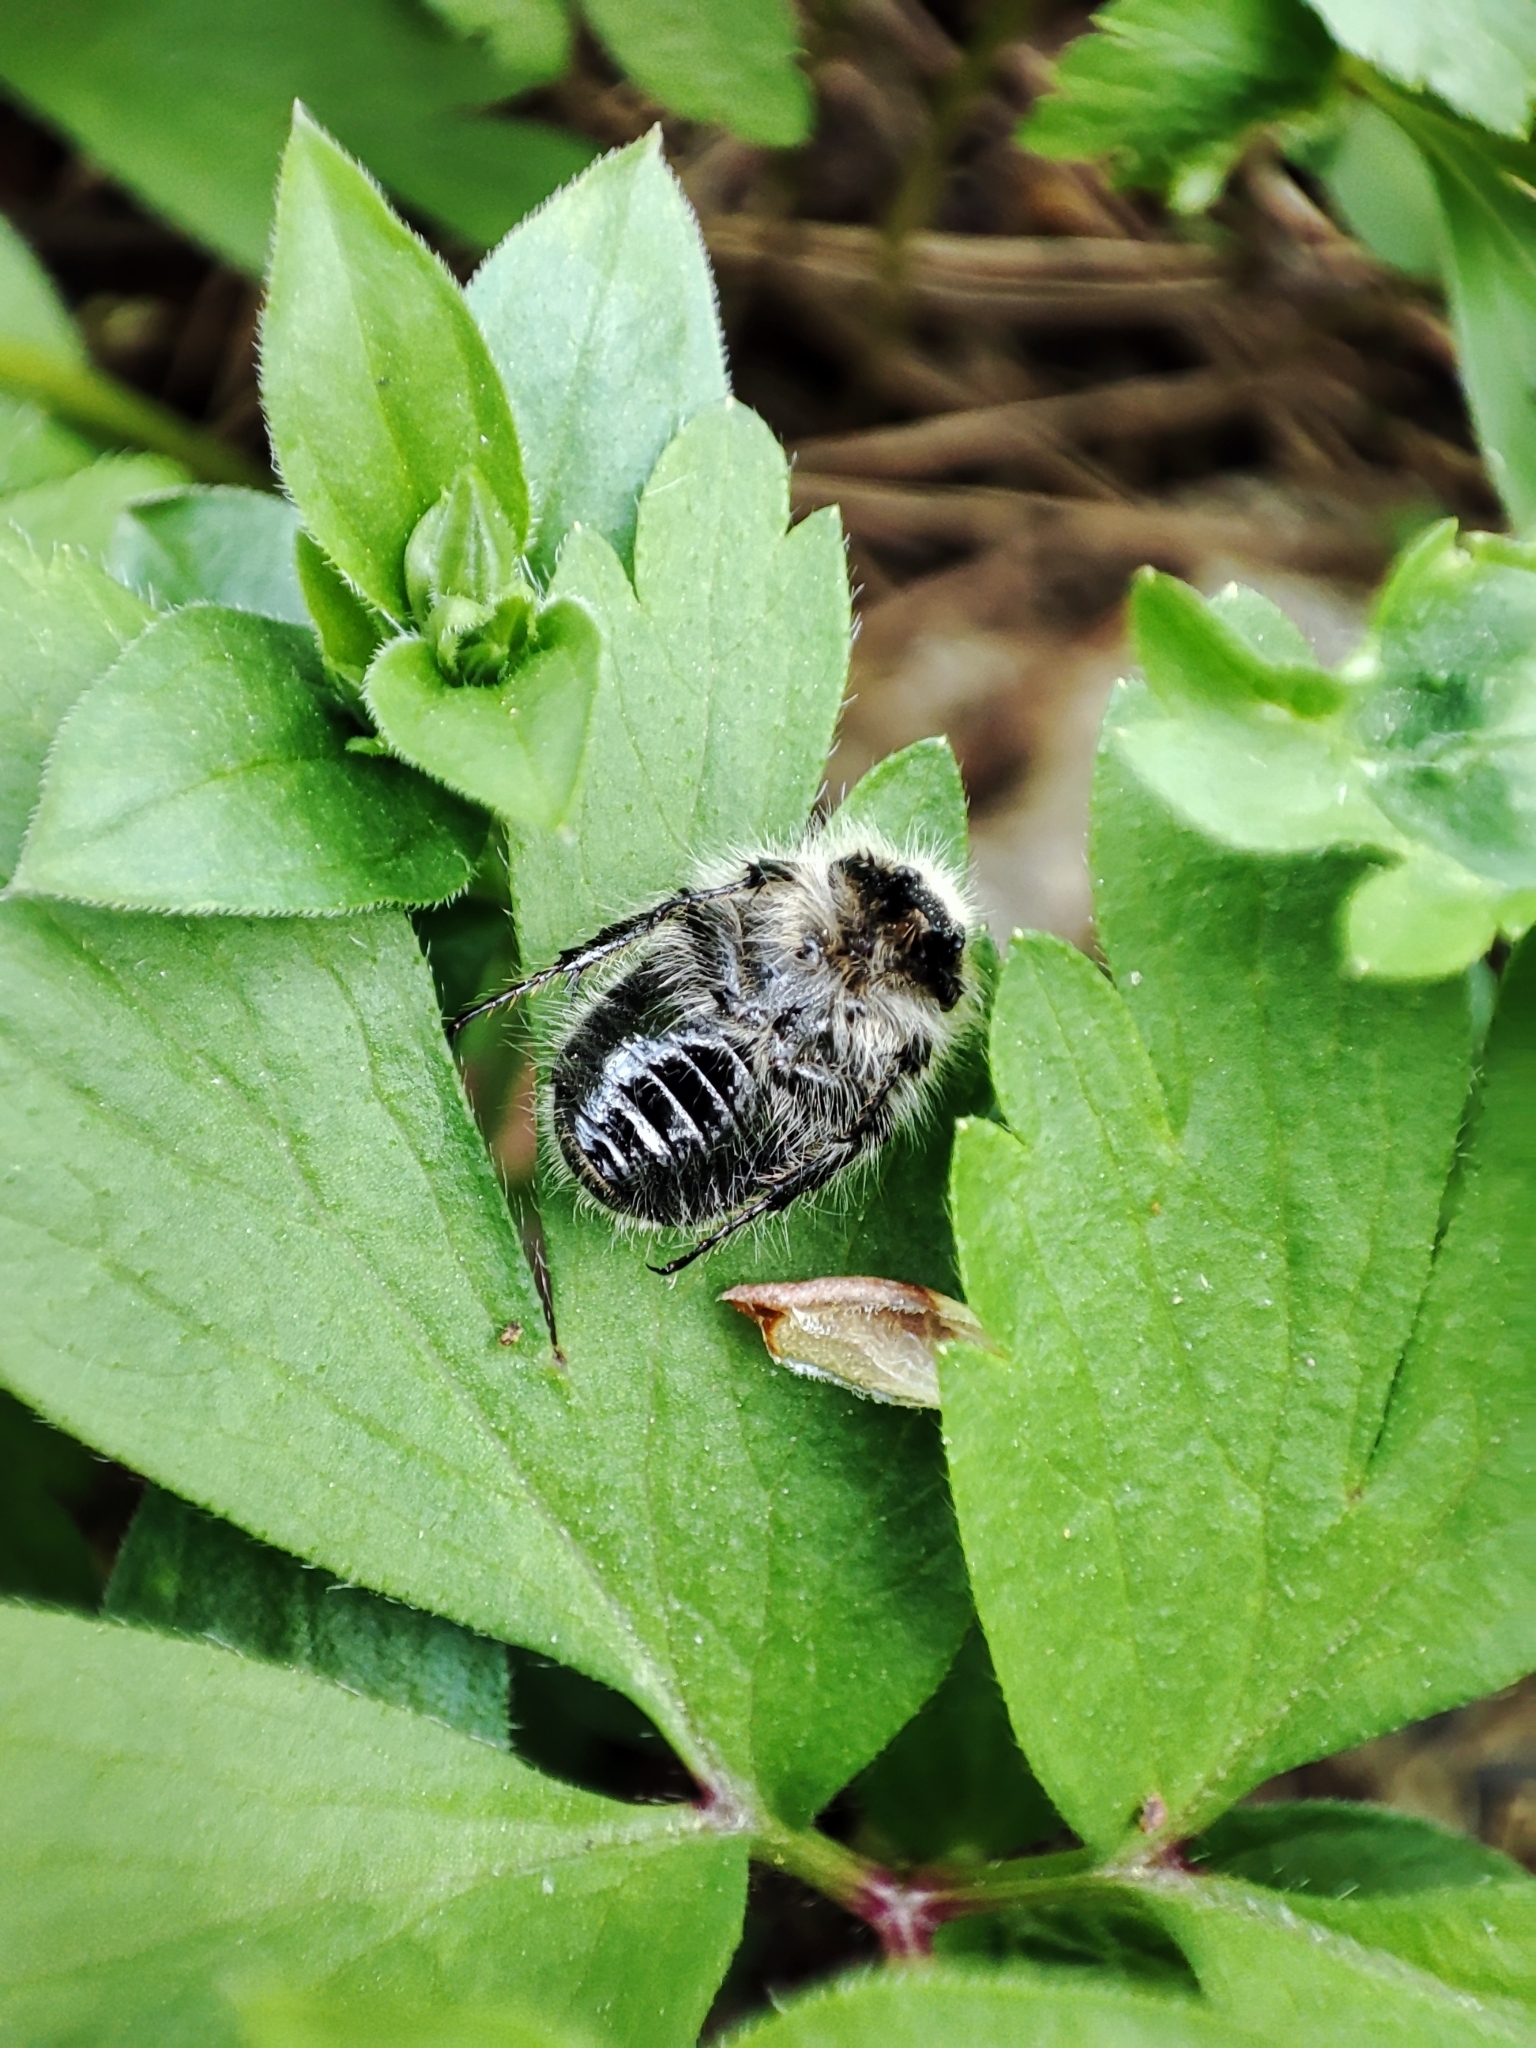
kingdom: Animalia
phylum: Arthropoda
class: Insecta
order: Coleoptera
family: Scarabaeidae
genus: Tropinota
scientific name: Tropinota hirta
